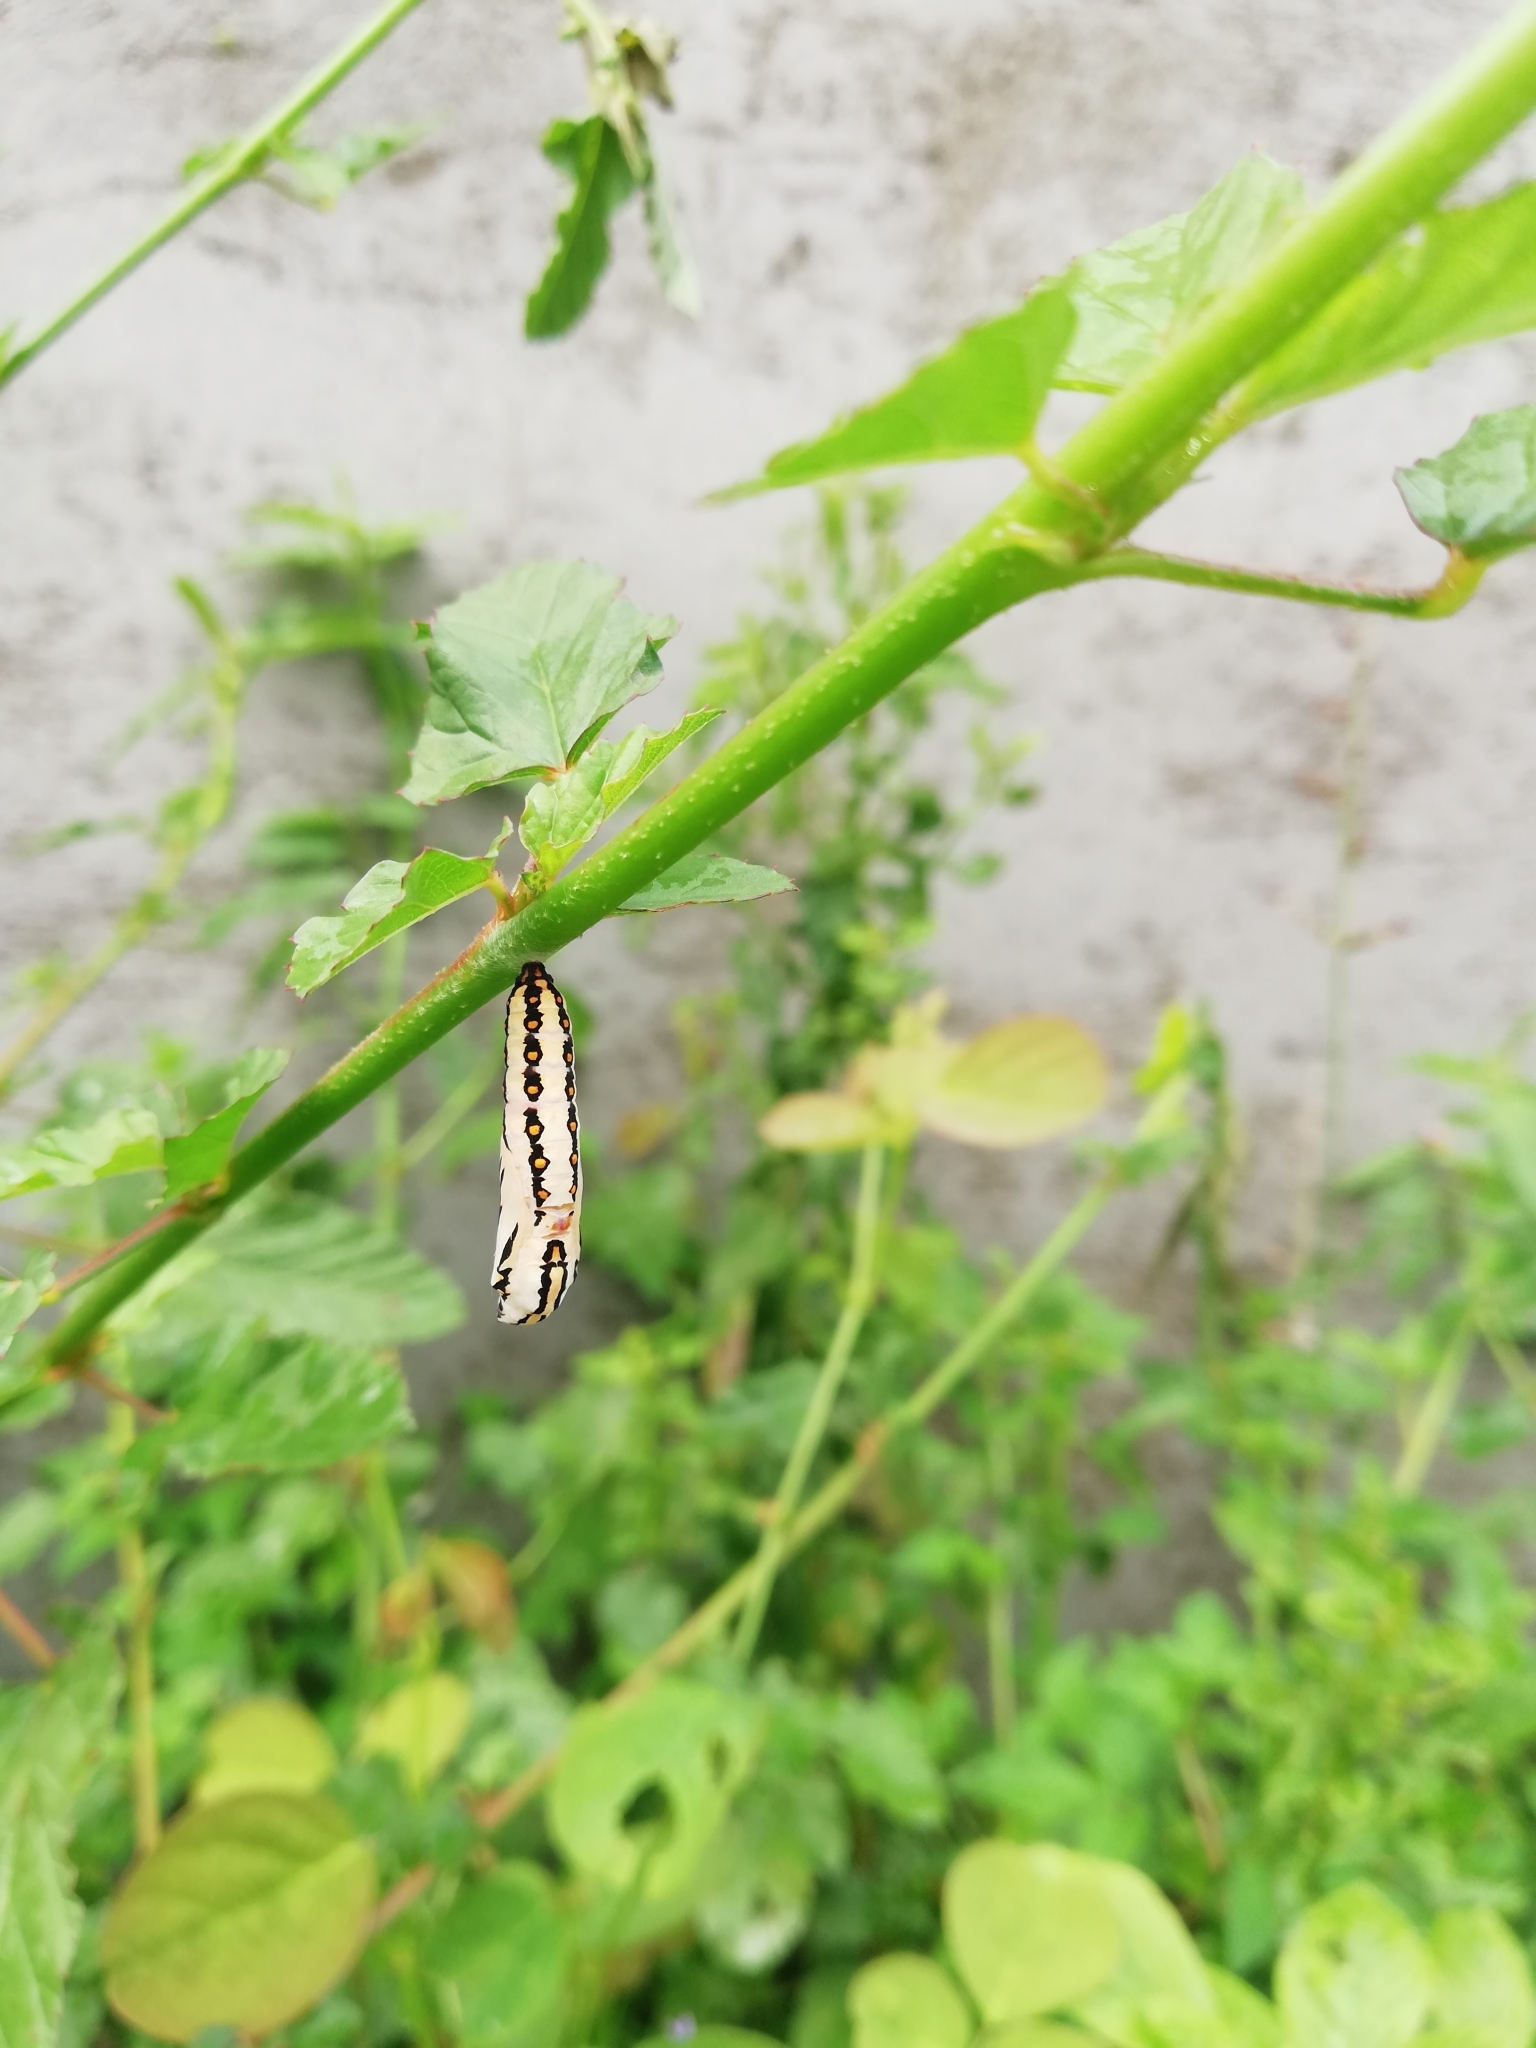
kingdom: Animalia
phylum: Arthropoda
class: Insecta
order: Lepidoptera
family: Nymphalidae
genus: Acraea
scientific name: Acraea terpsicore
